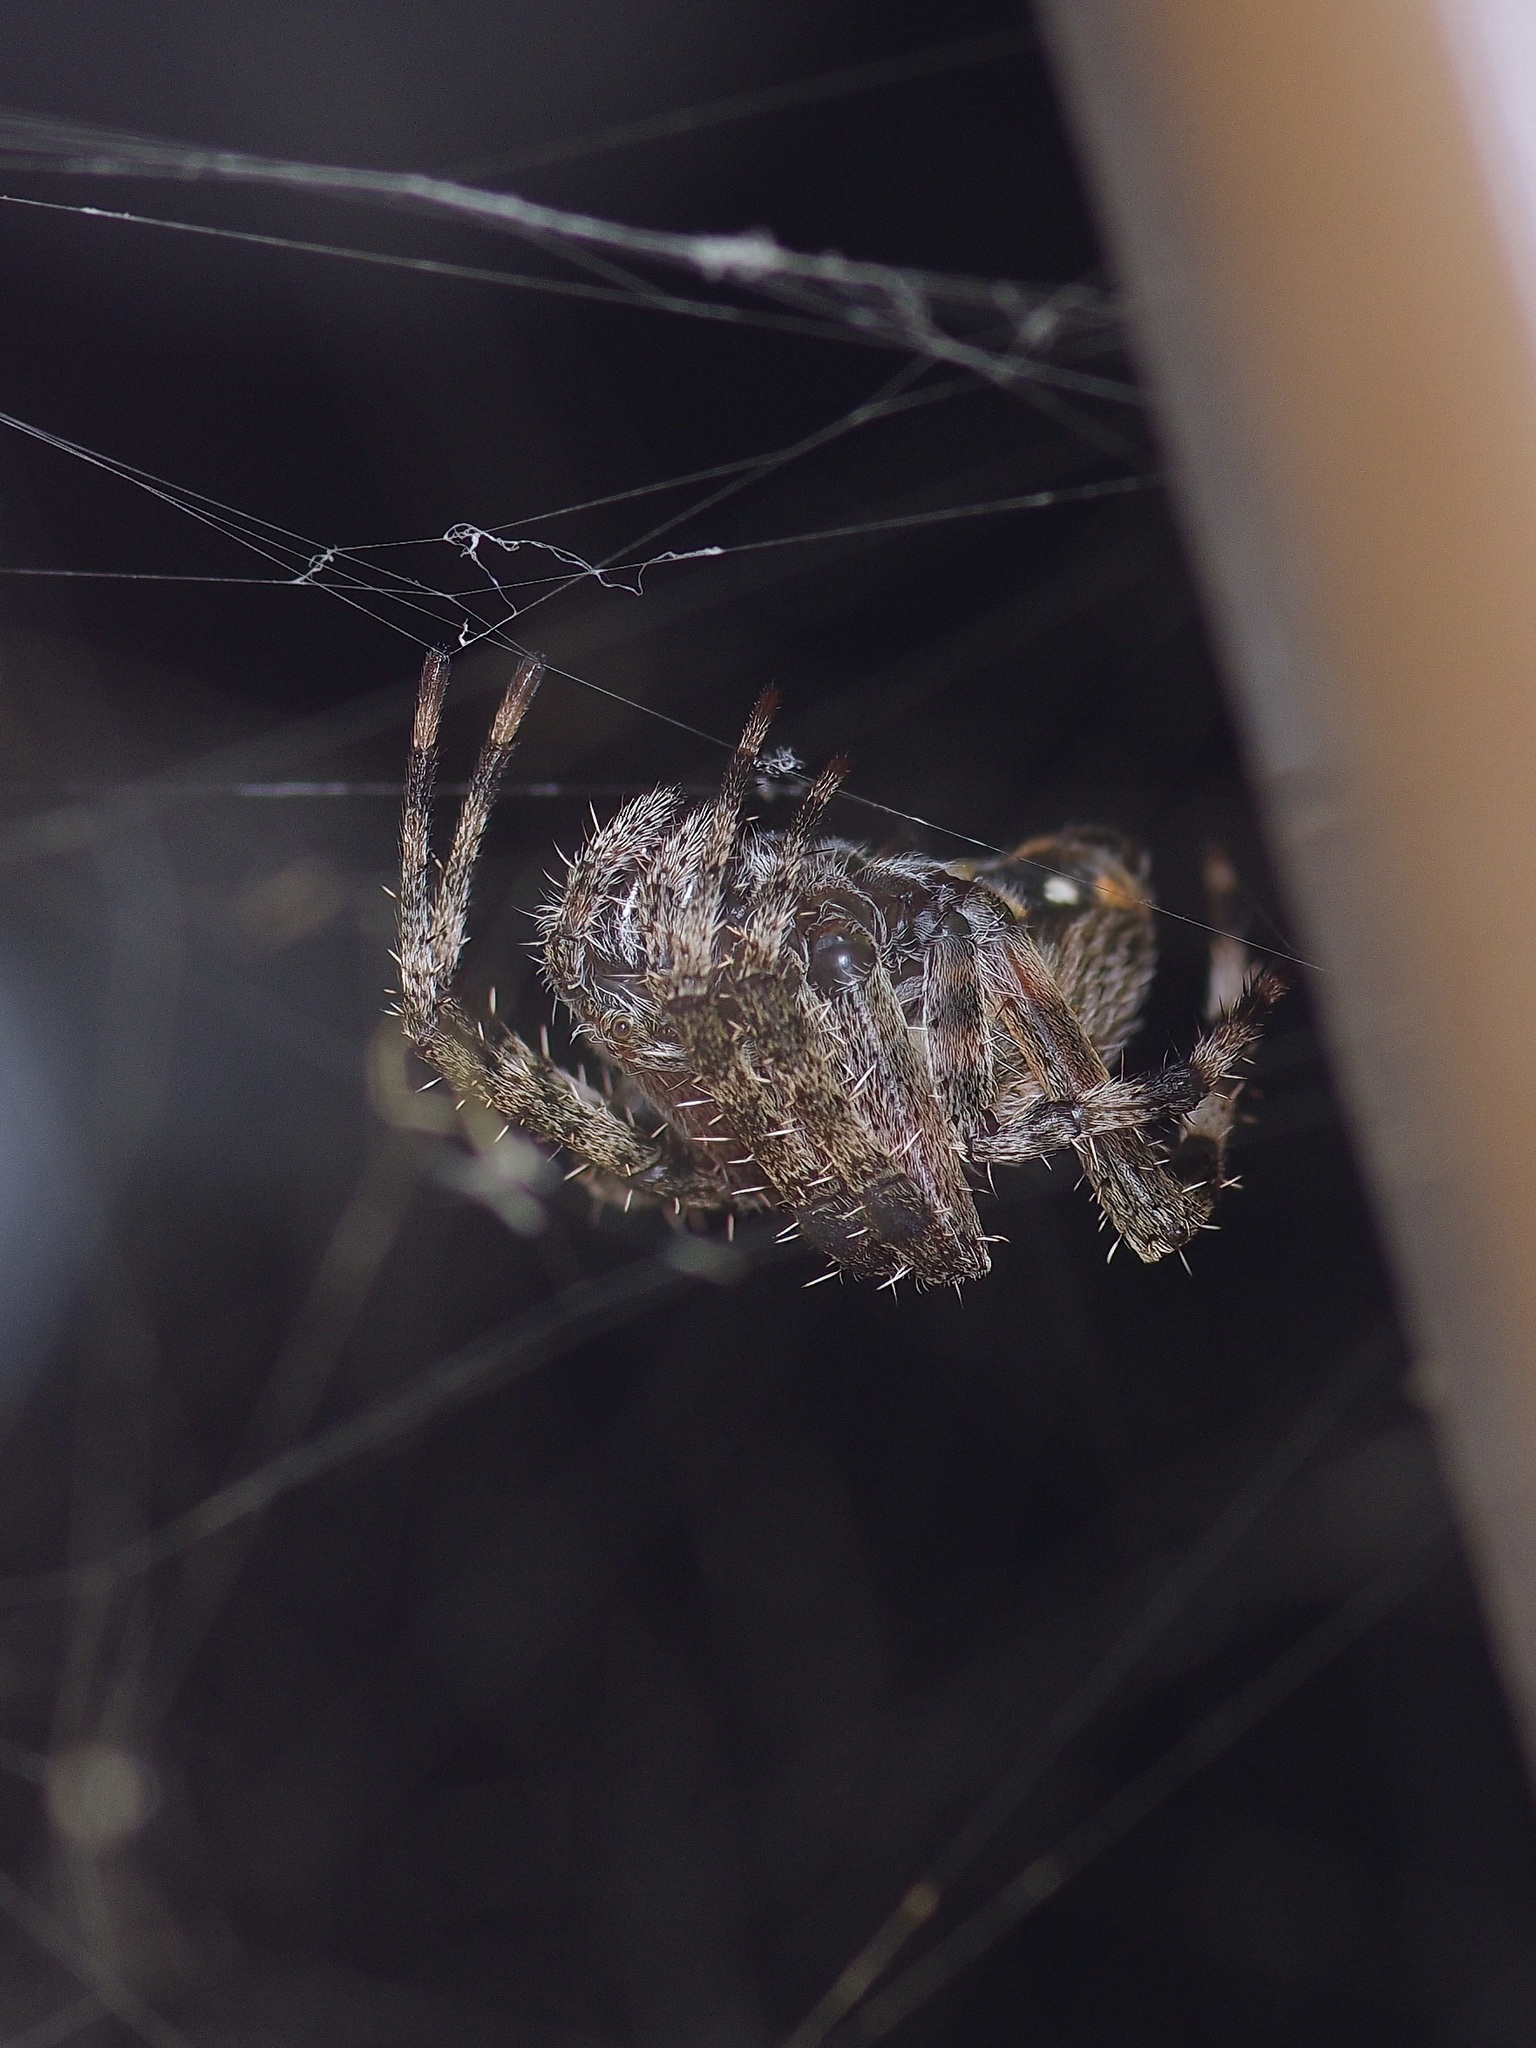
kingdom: Animalia
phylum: Arthropoda
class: Arachnida
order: Araneae
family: Araneidae
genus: Neoscona
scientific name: Neoscona crucifera
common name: Spotted orbweaver
